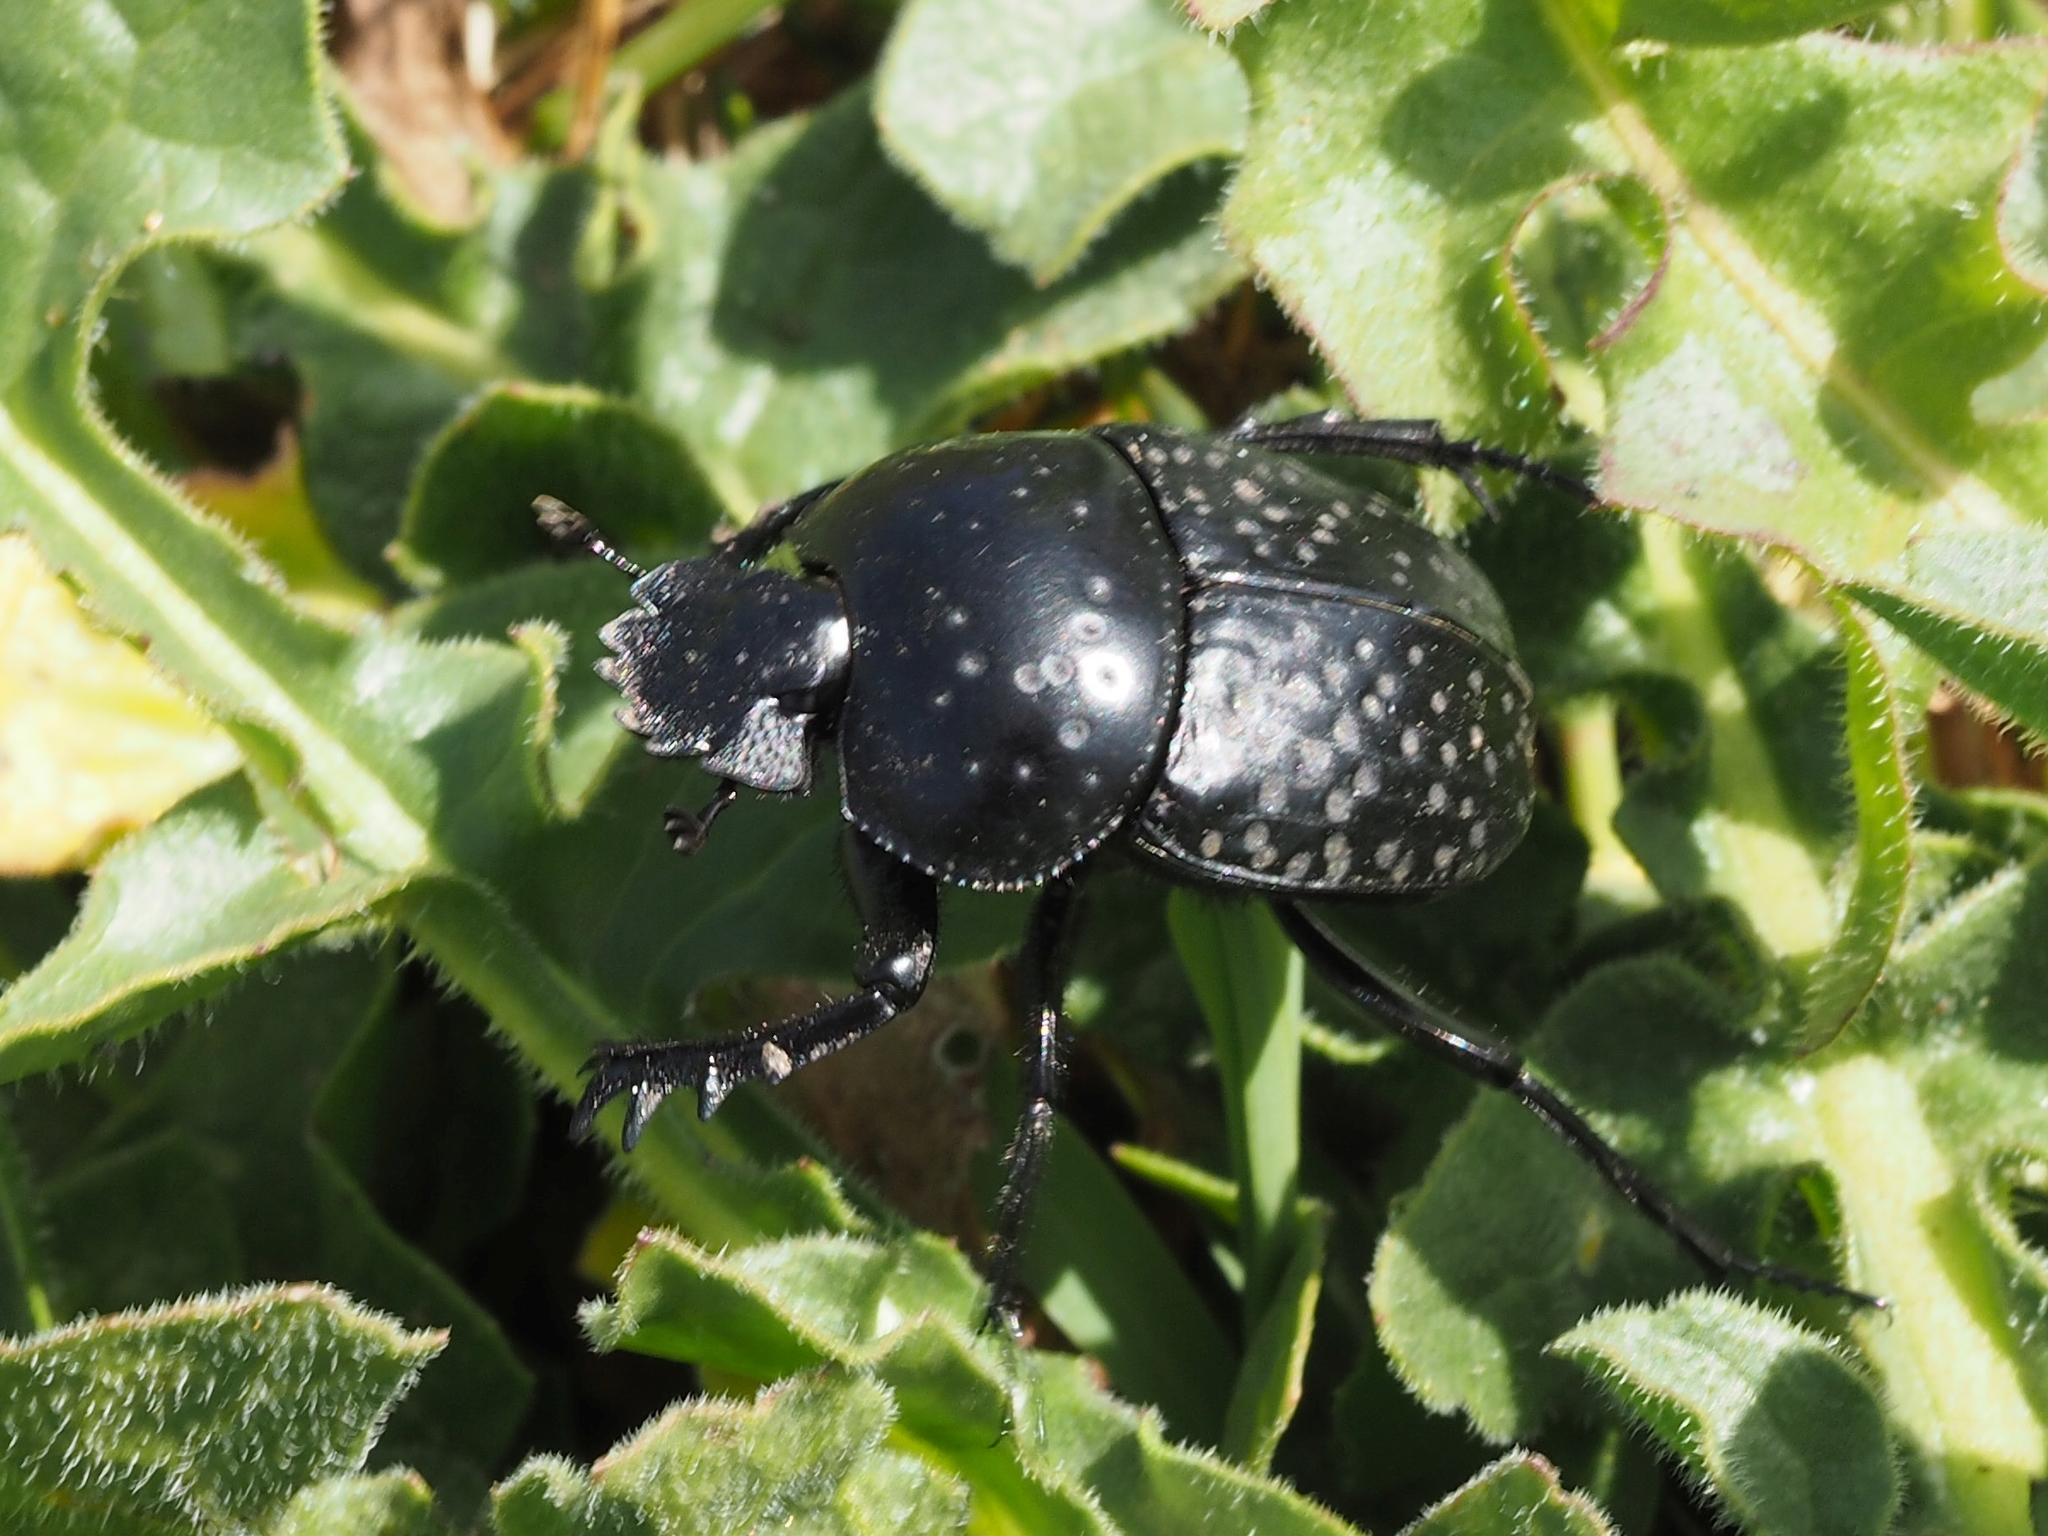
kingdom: Animalia
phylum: Arthropoda
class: Insecta
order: Coleoptera
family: Scarabaeidae
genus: Ateuchetus
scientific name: Ateuchetus
